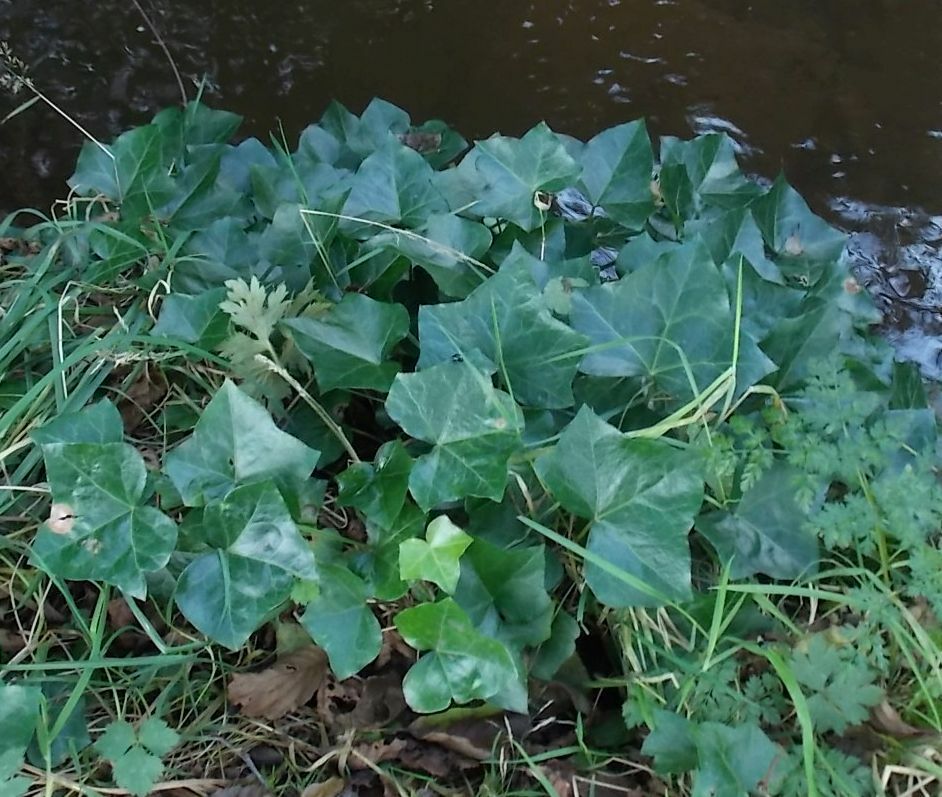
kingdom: Plantae
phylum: Tracheophyta
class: Magnoliopsida
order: Apiales
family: Araliaceae
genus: Hedera
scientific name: Hedera helix
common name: Ivy
